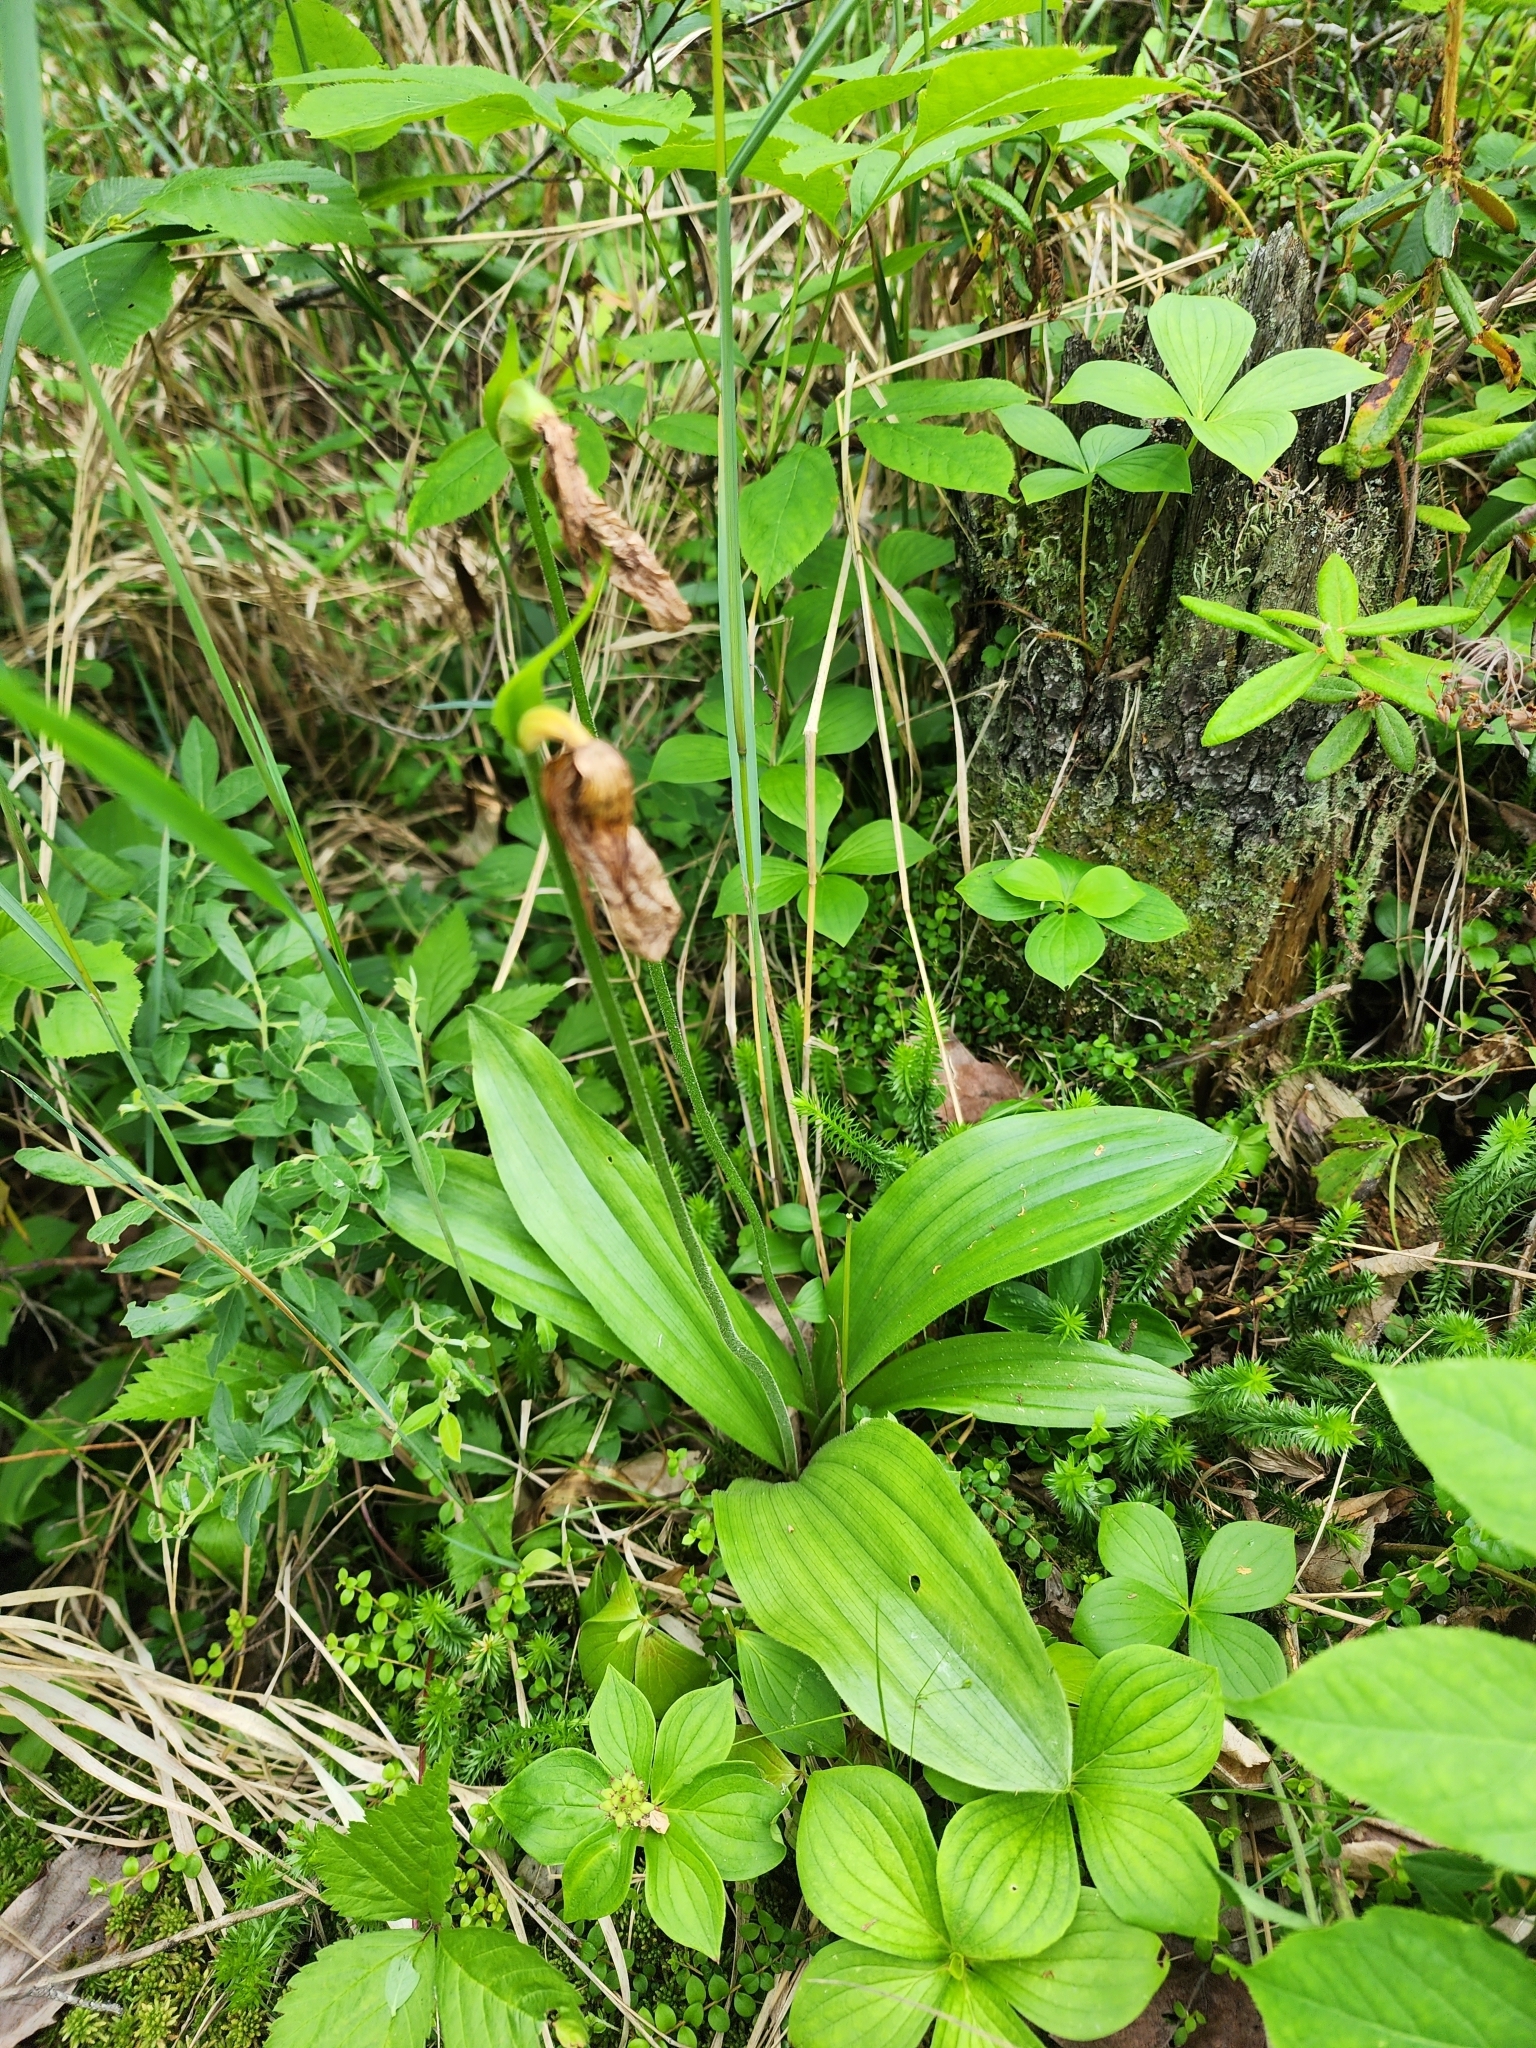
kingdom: Plantae
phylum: Tracheophyta
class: Liliopsida
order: Asparagales
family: Orchidaceae
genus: Cypripedium
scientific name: Cypripedium acaule
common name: Pink lady's-slipper
